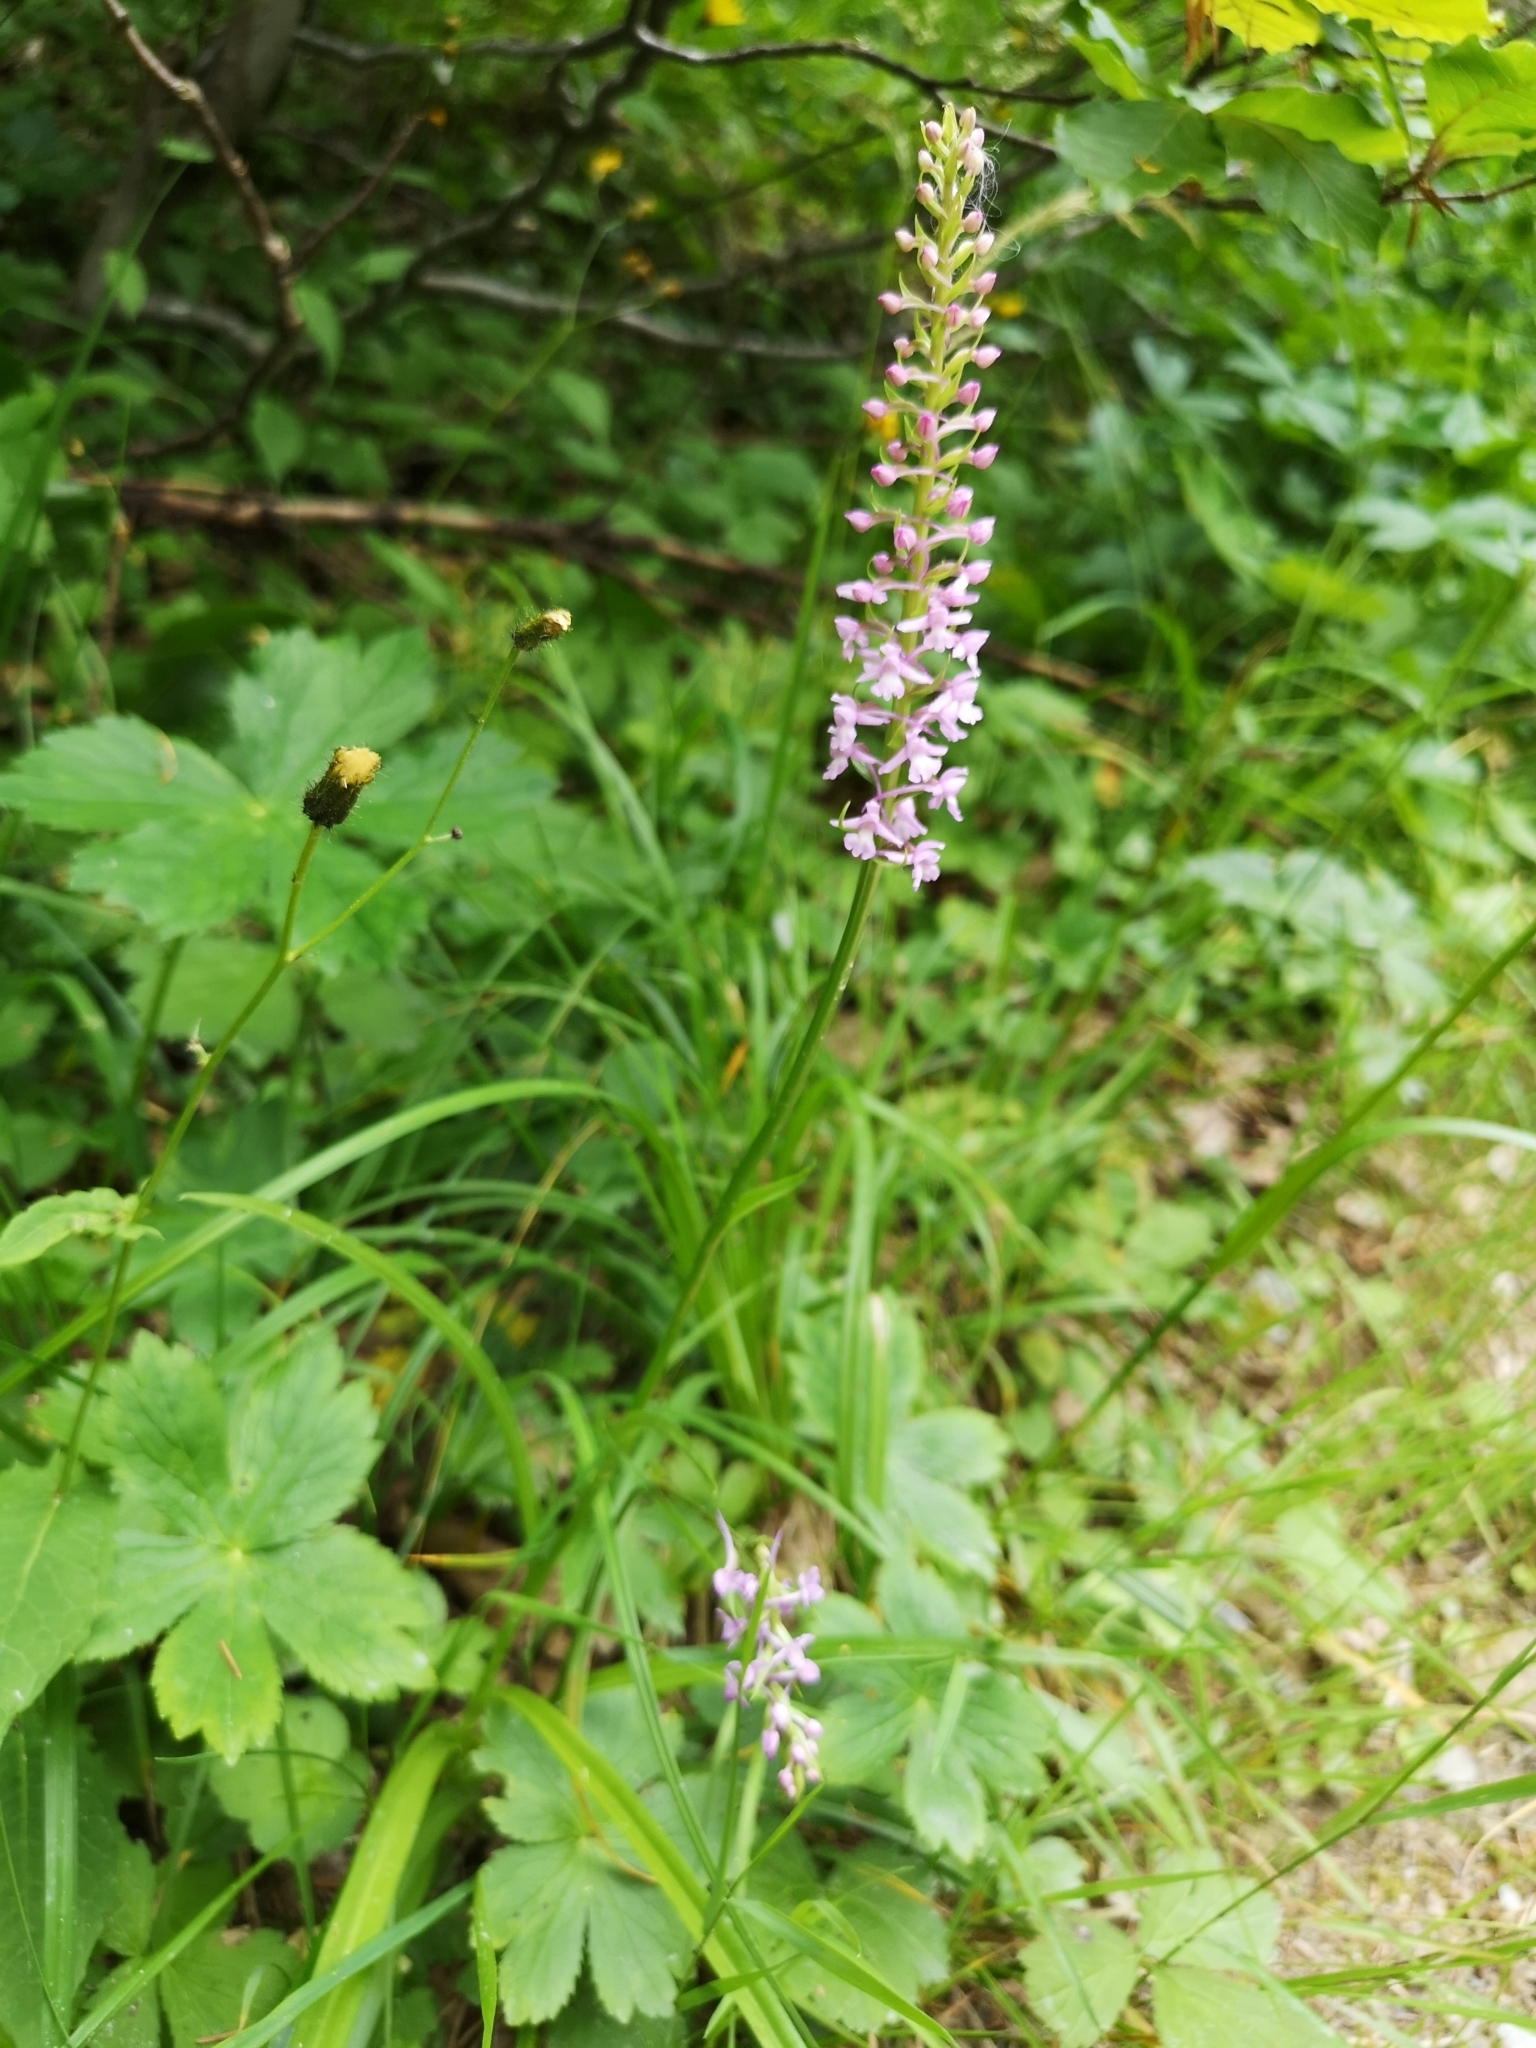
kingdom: Plantae
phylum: Tracheophyta
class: Liliopsida
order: Asparagales
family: Orchidaceae
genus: Gymnadenia
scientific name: Gymnadenia conopsea
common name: Fragrant orchid
